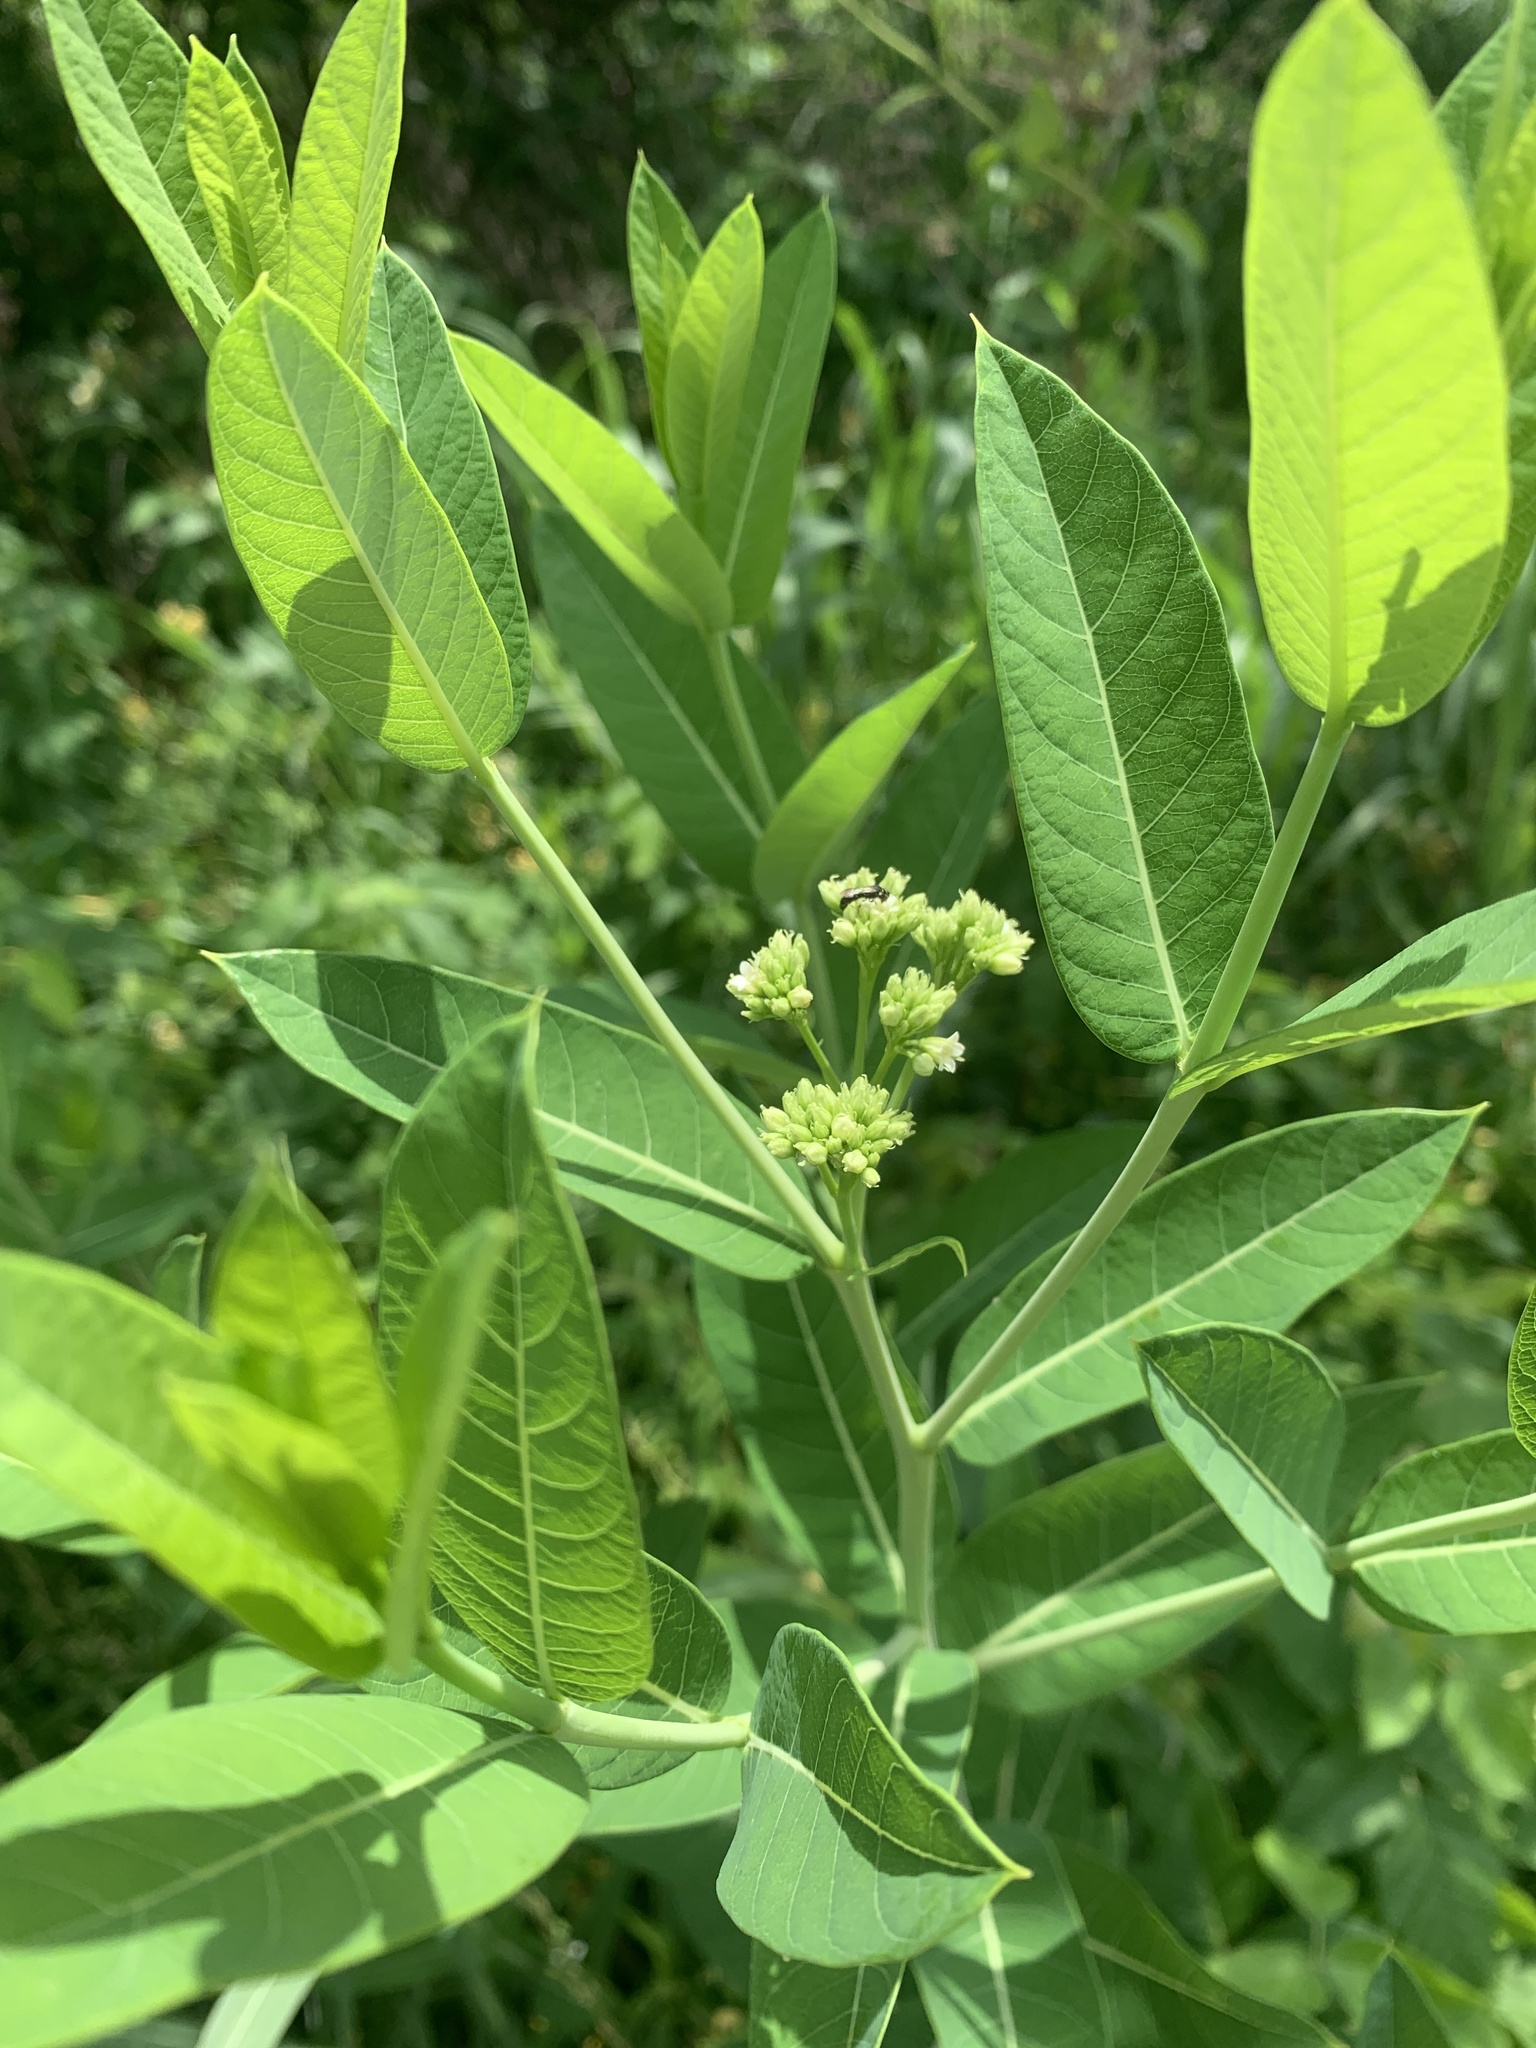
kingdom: Plantae
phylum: Tracheophyta
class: Magnoliopsida
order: Gentianales
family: Apocynaceae
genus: Apocynum
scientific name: Apocynum cannabinum
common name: Hemp dogbane
